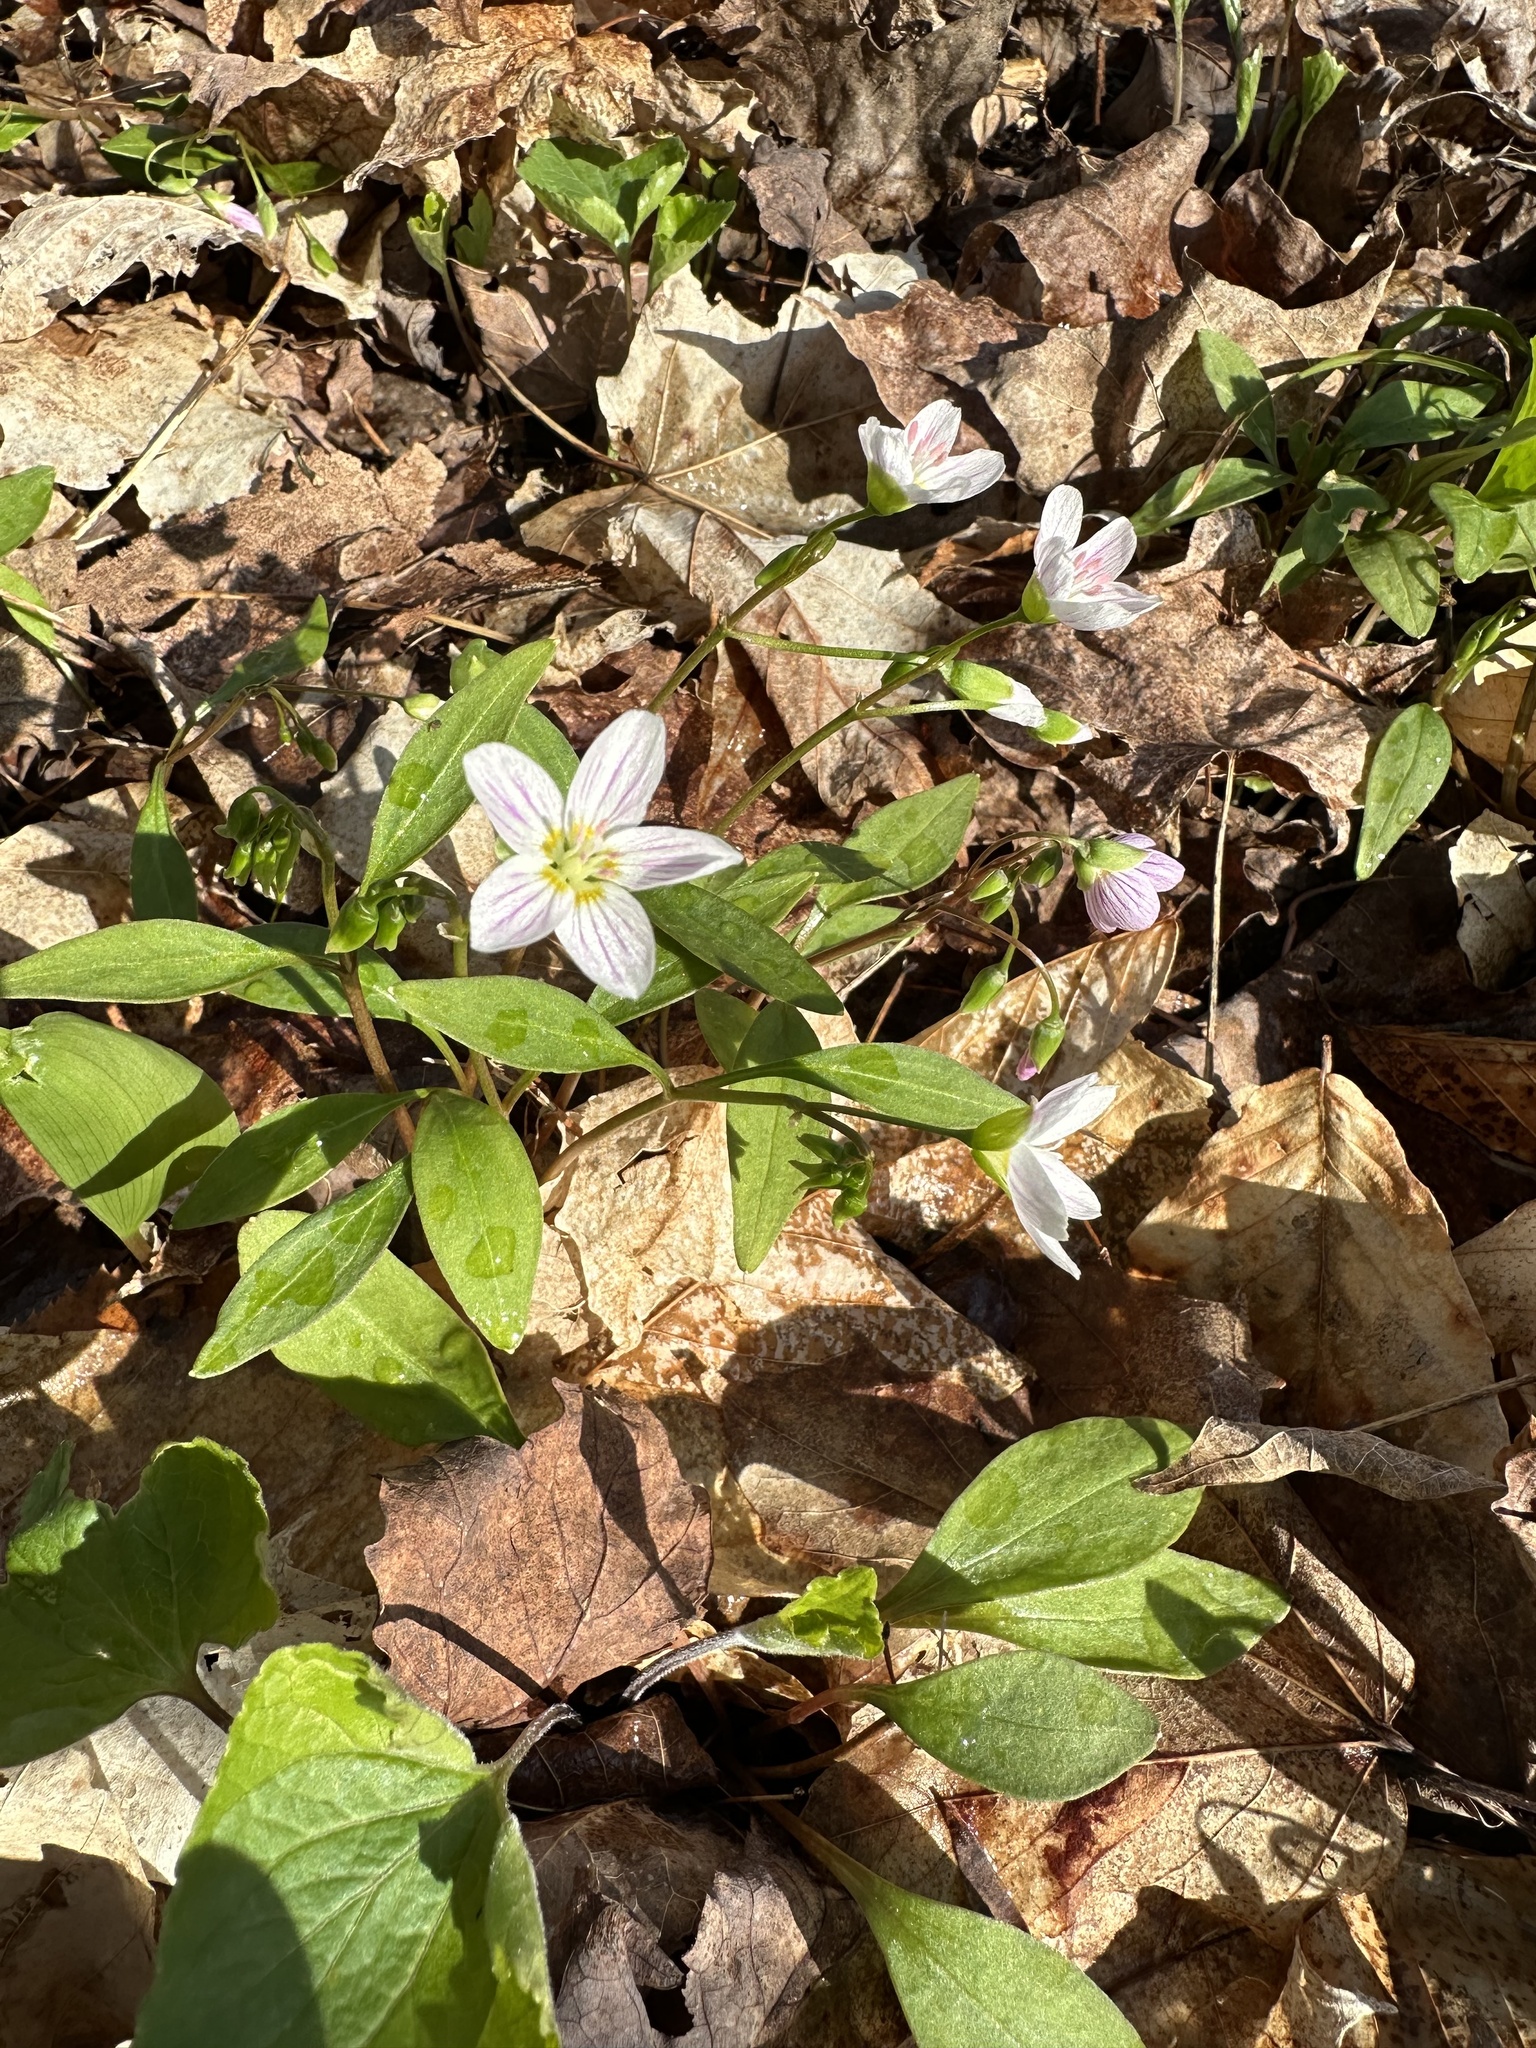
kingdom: Plantae
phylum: Tracheophyta
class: Magnoliopsida
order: Caryophyllales
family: Montiaceae
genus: Claytonia
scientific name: Claytonia caroliniana
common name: Carolina spring beauty
